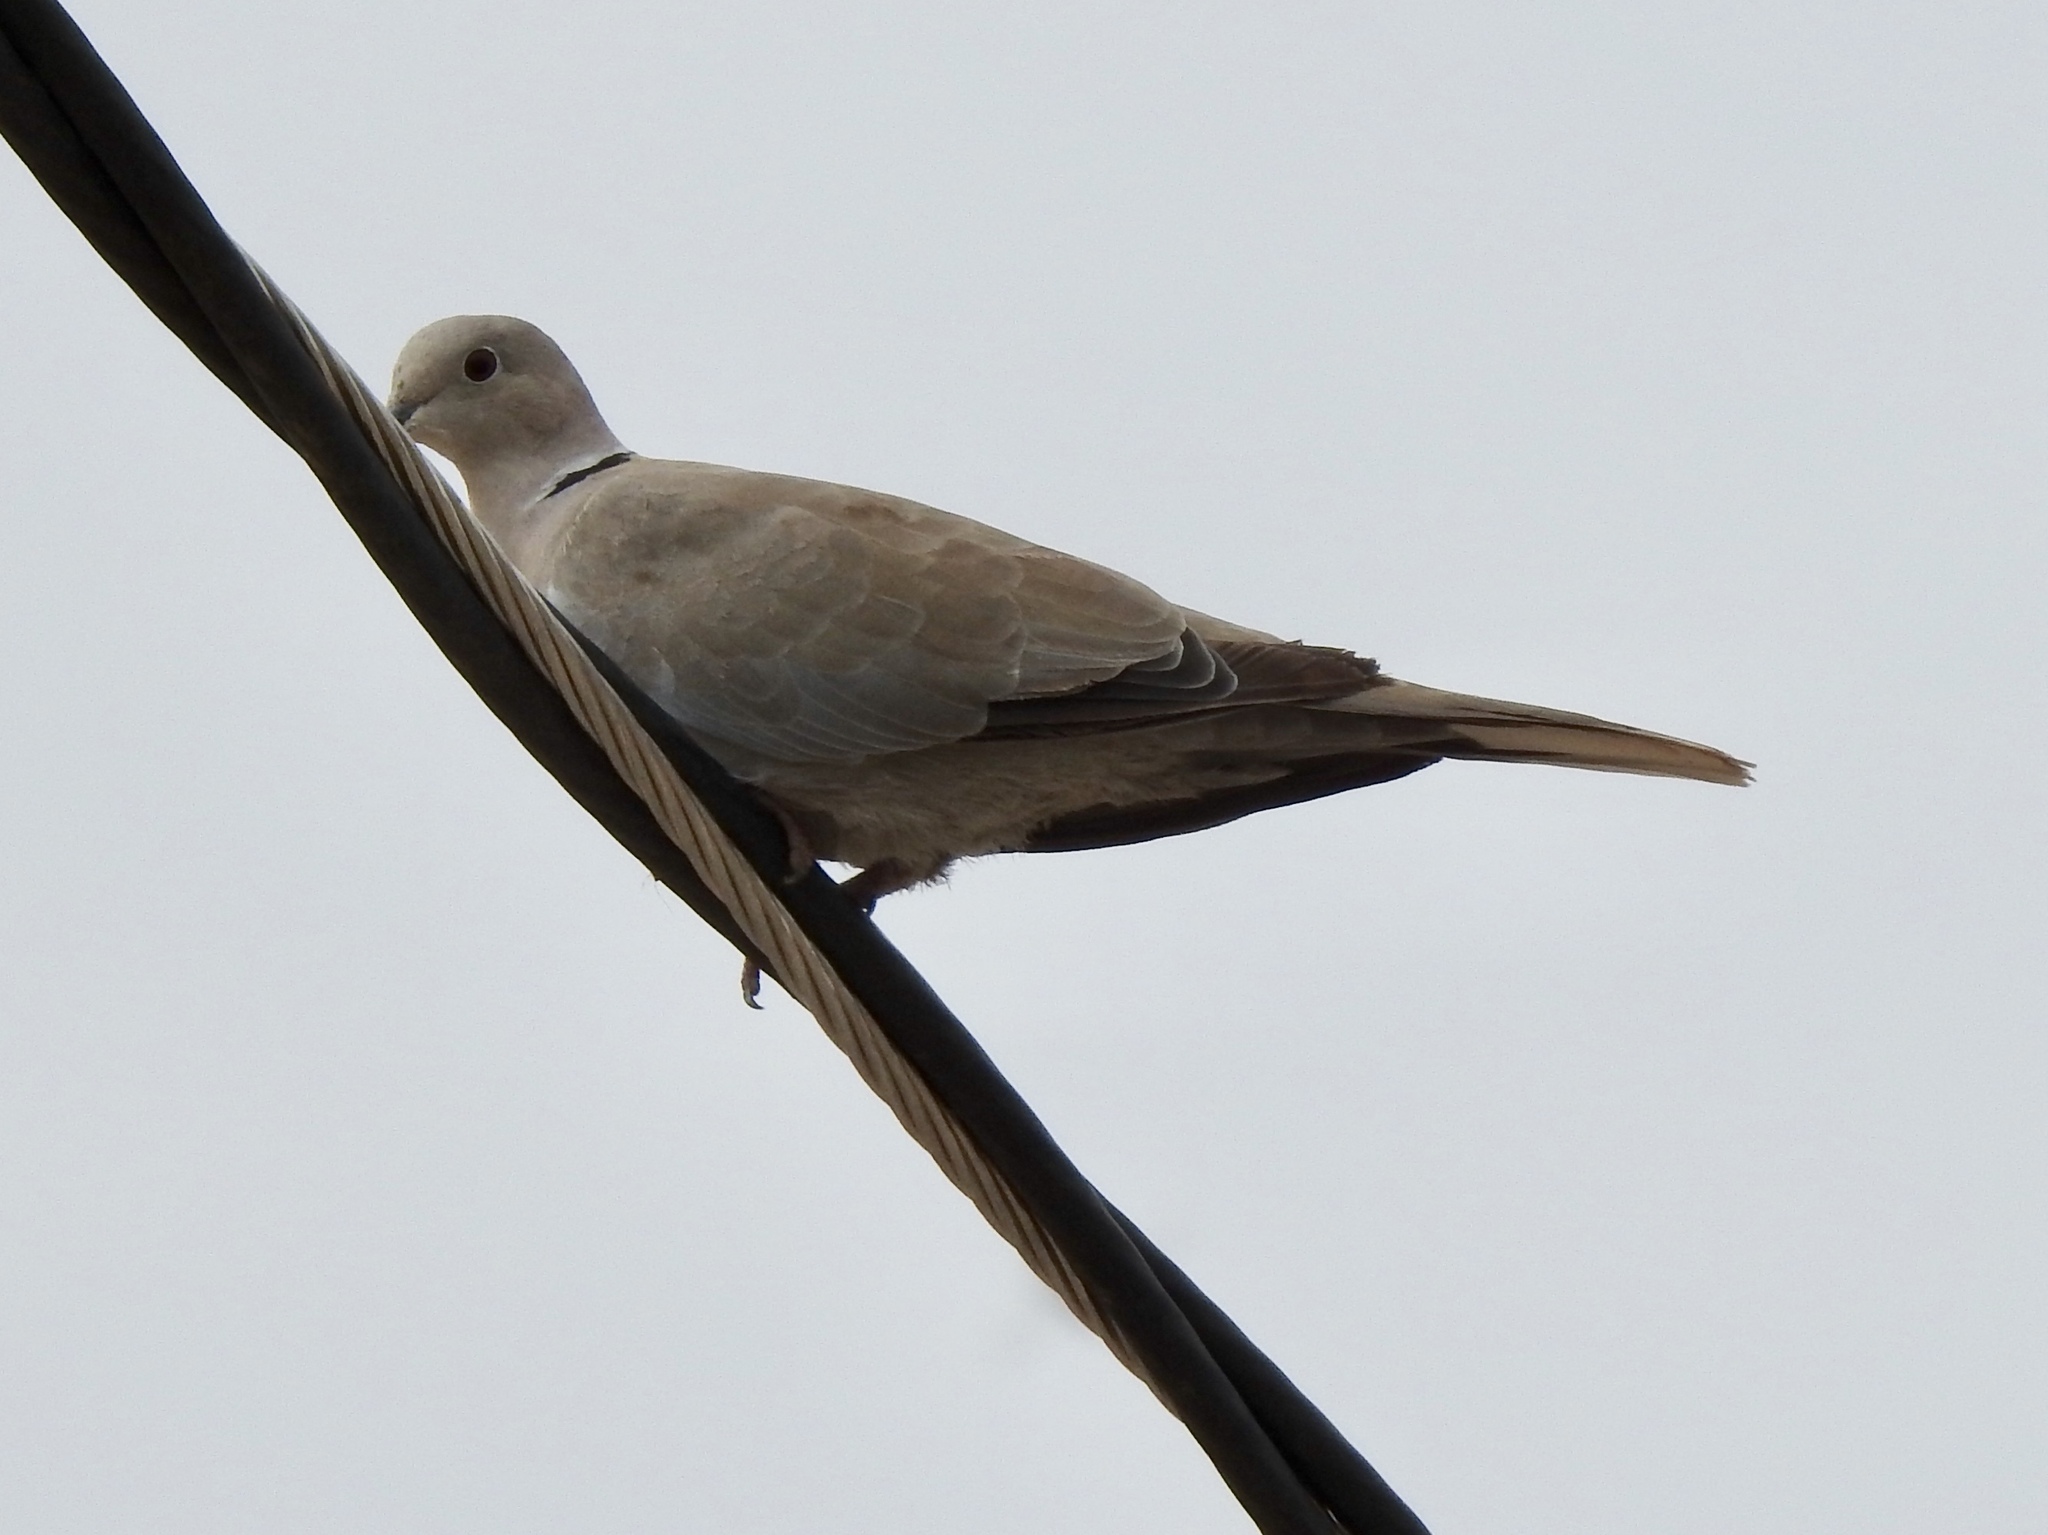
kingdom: Animalia
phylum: Chordata
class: Aves
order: Columbiformes
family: Columbidae
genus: Streptopelia
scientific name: Streptopelia decaocto
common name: Eurasian collared dove
